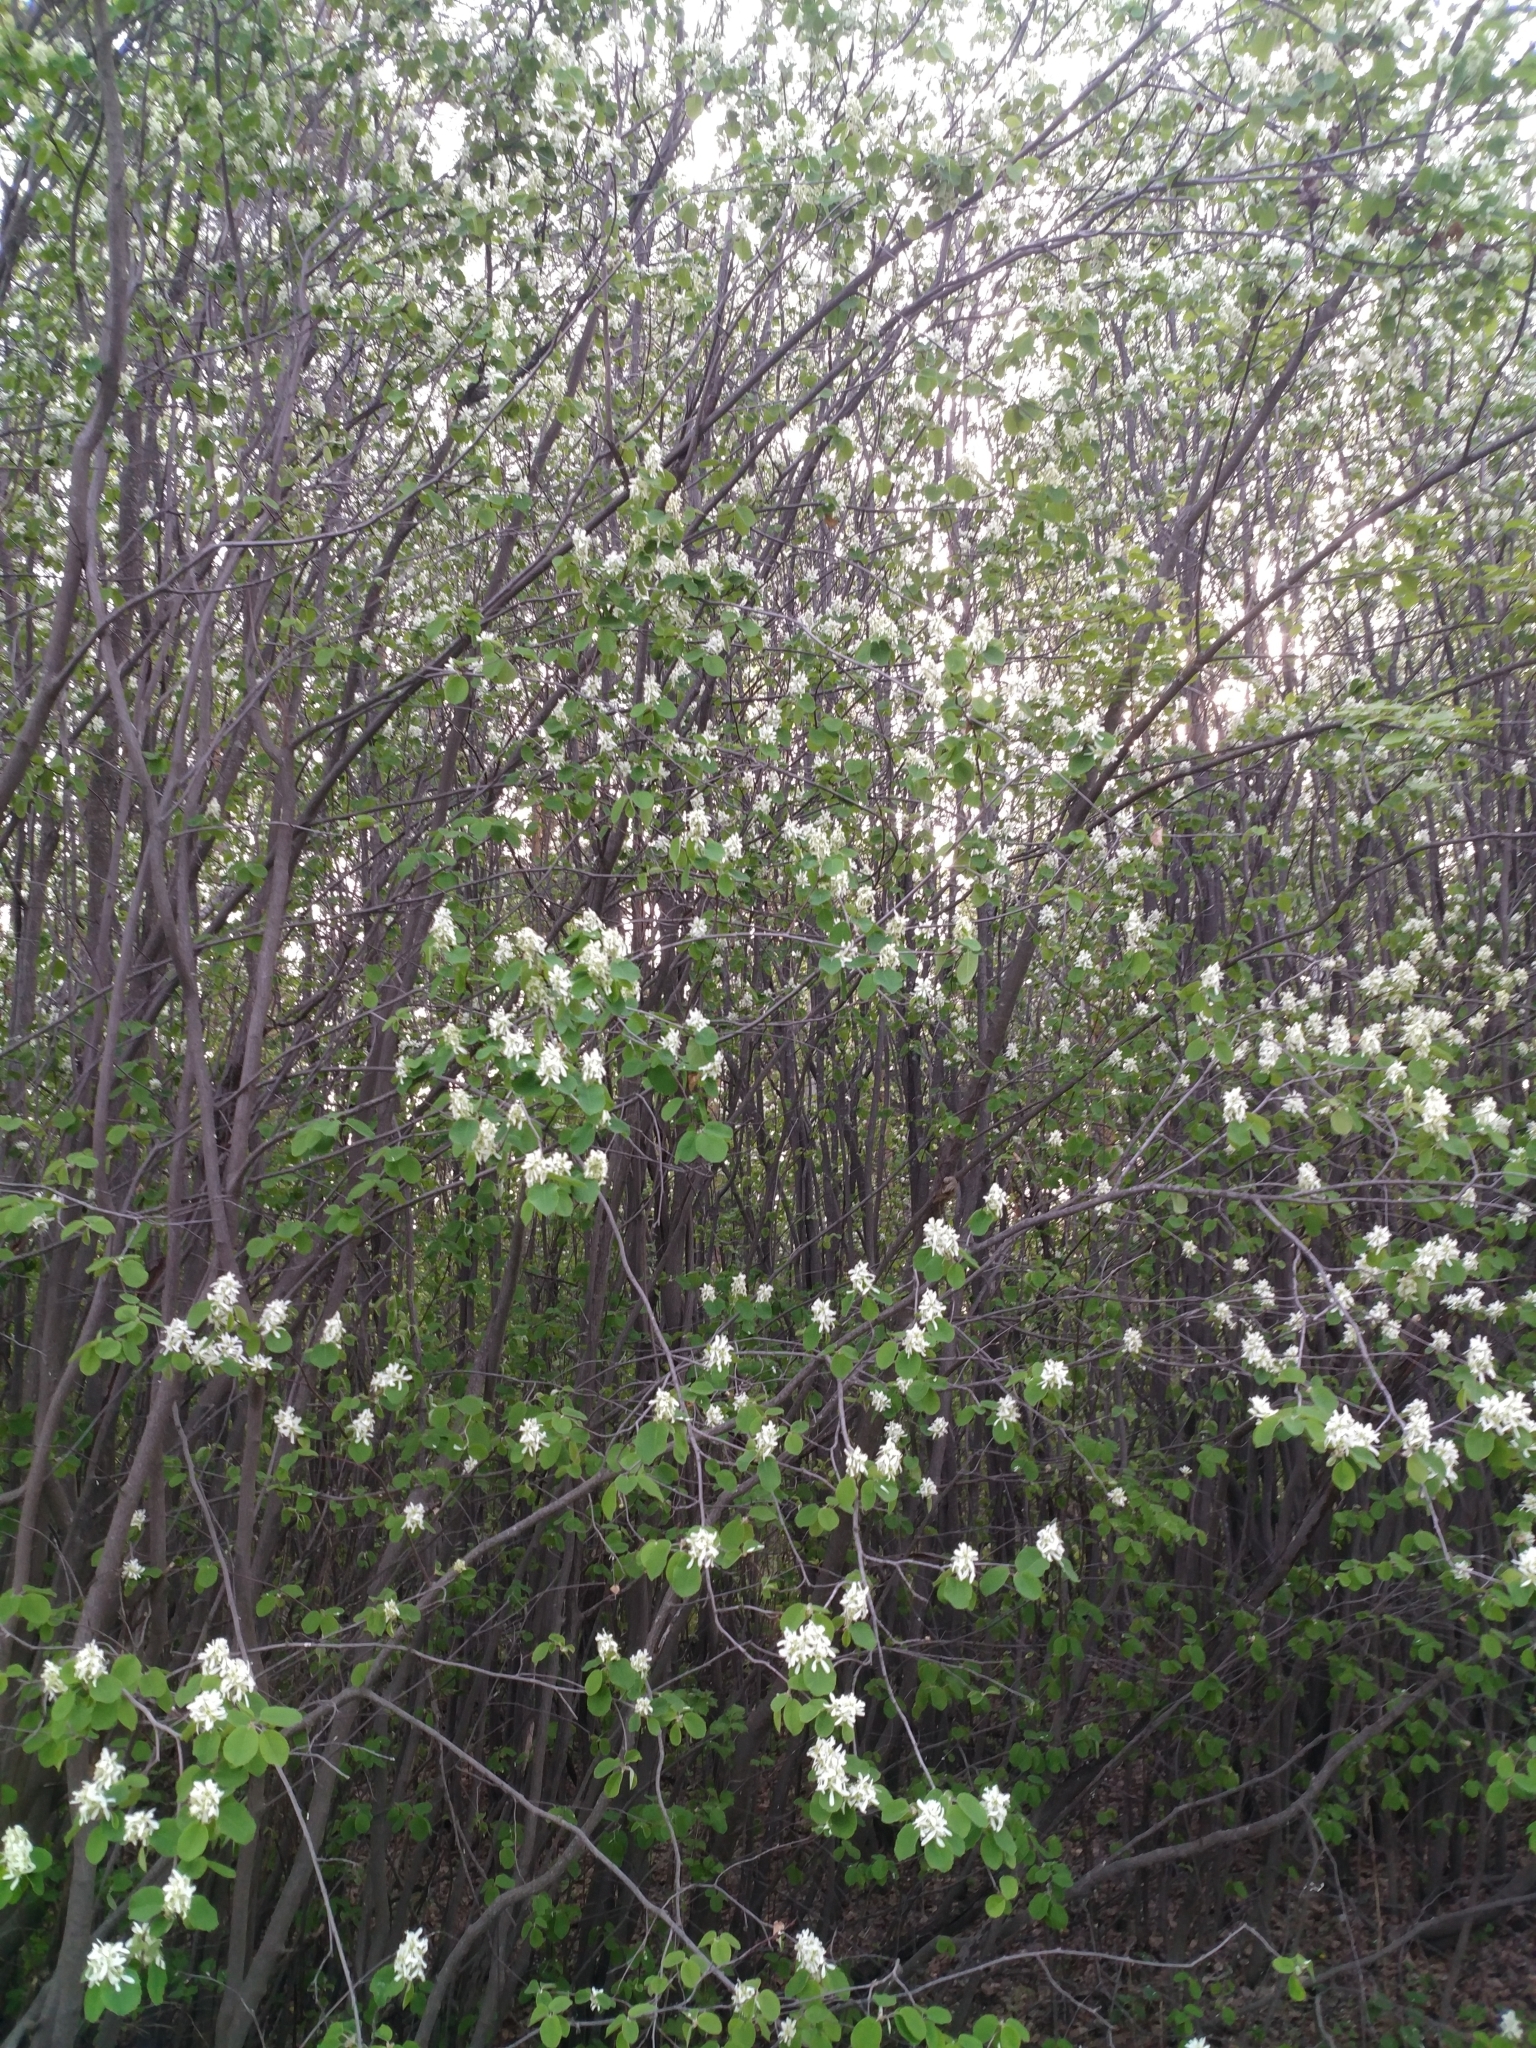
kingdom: Plantae
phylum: Tracheophyta
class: Magnoliopsida
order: Rosales
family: Rosaceae
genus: Amelanchier
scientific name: Amelanchier alnifolia
